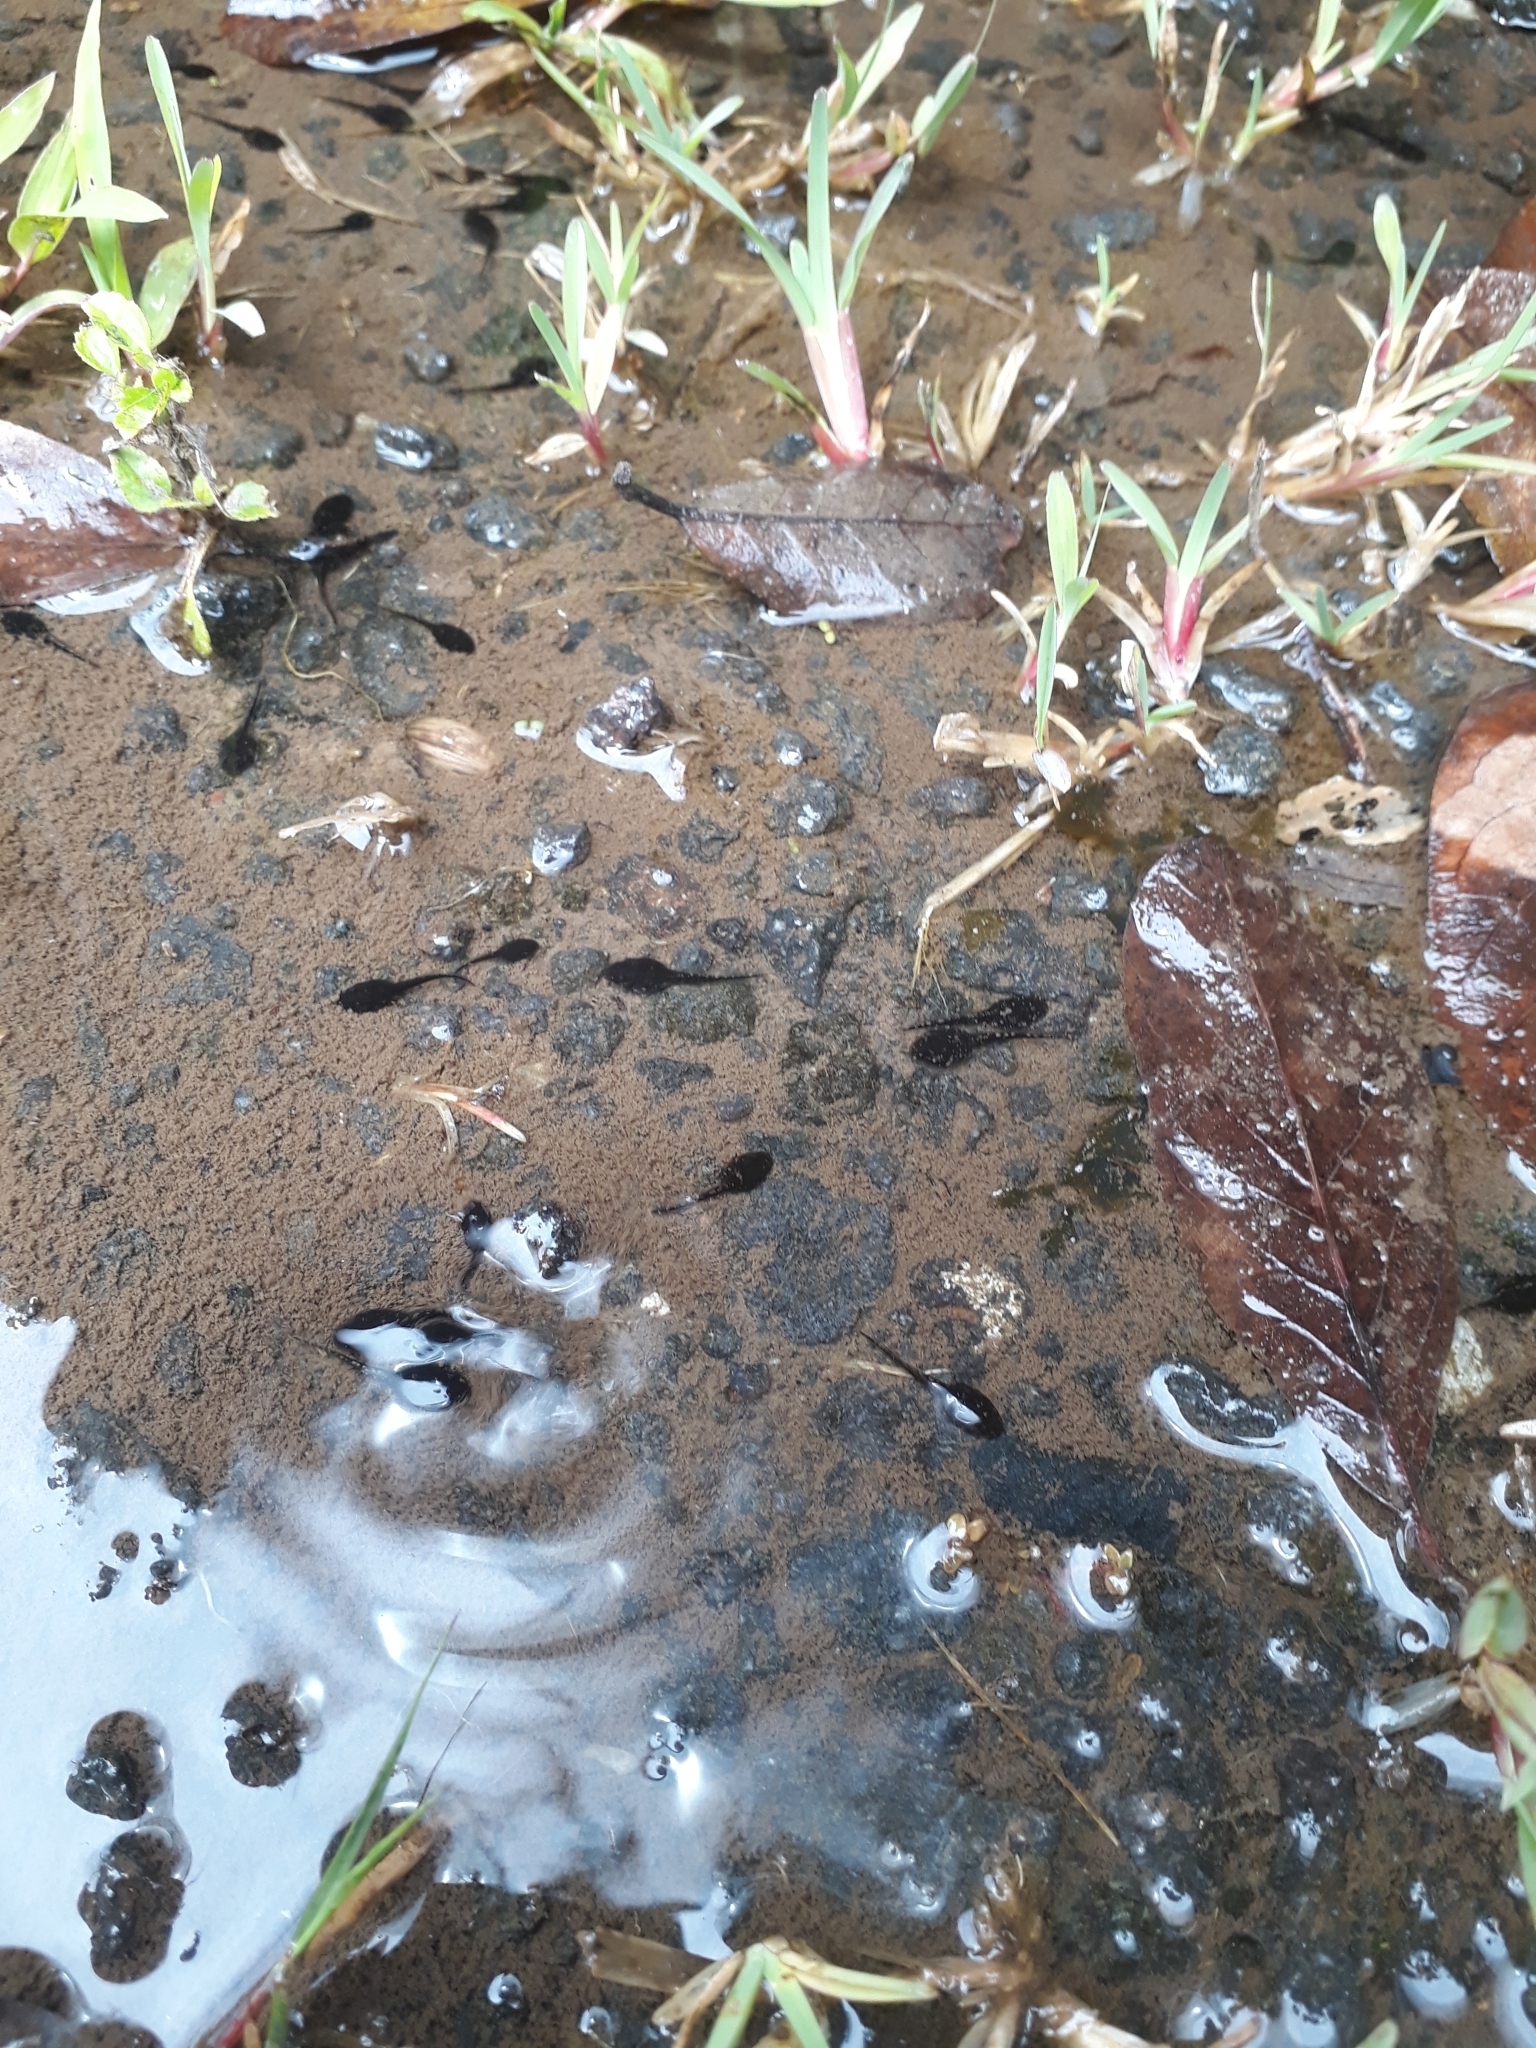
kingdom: Animalia
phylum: Chordata
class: Amphibia
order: Anura
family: Bufonidae
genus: Sclerophrys
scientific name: Sclerophrys gutturalis
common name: African common toad
